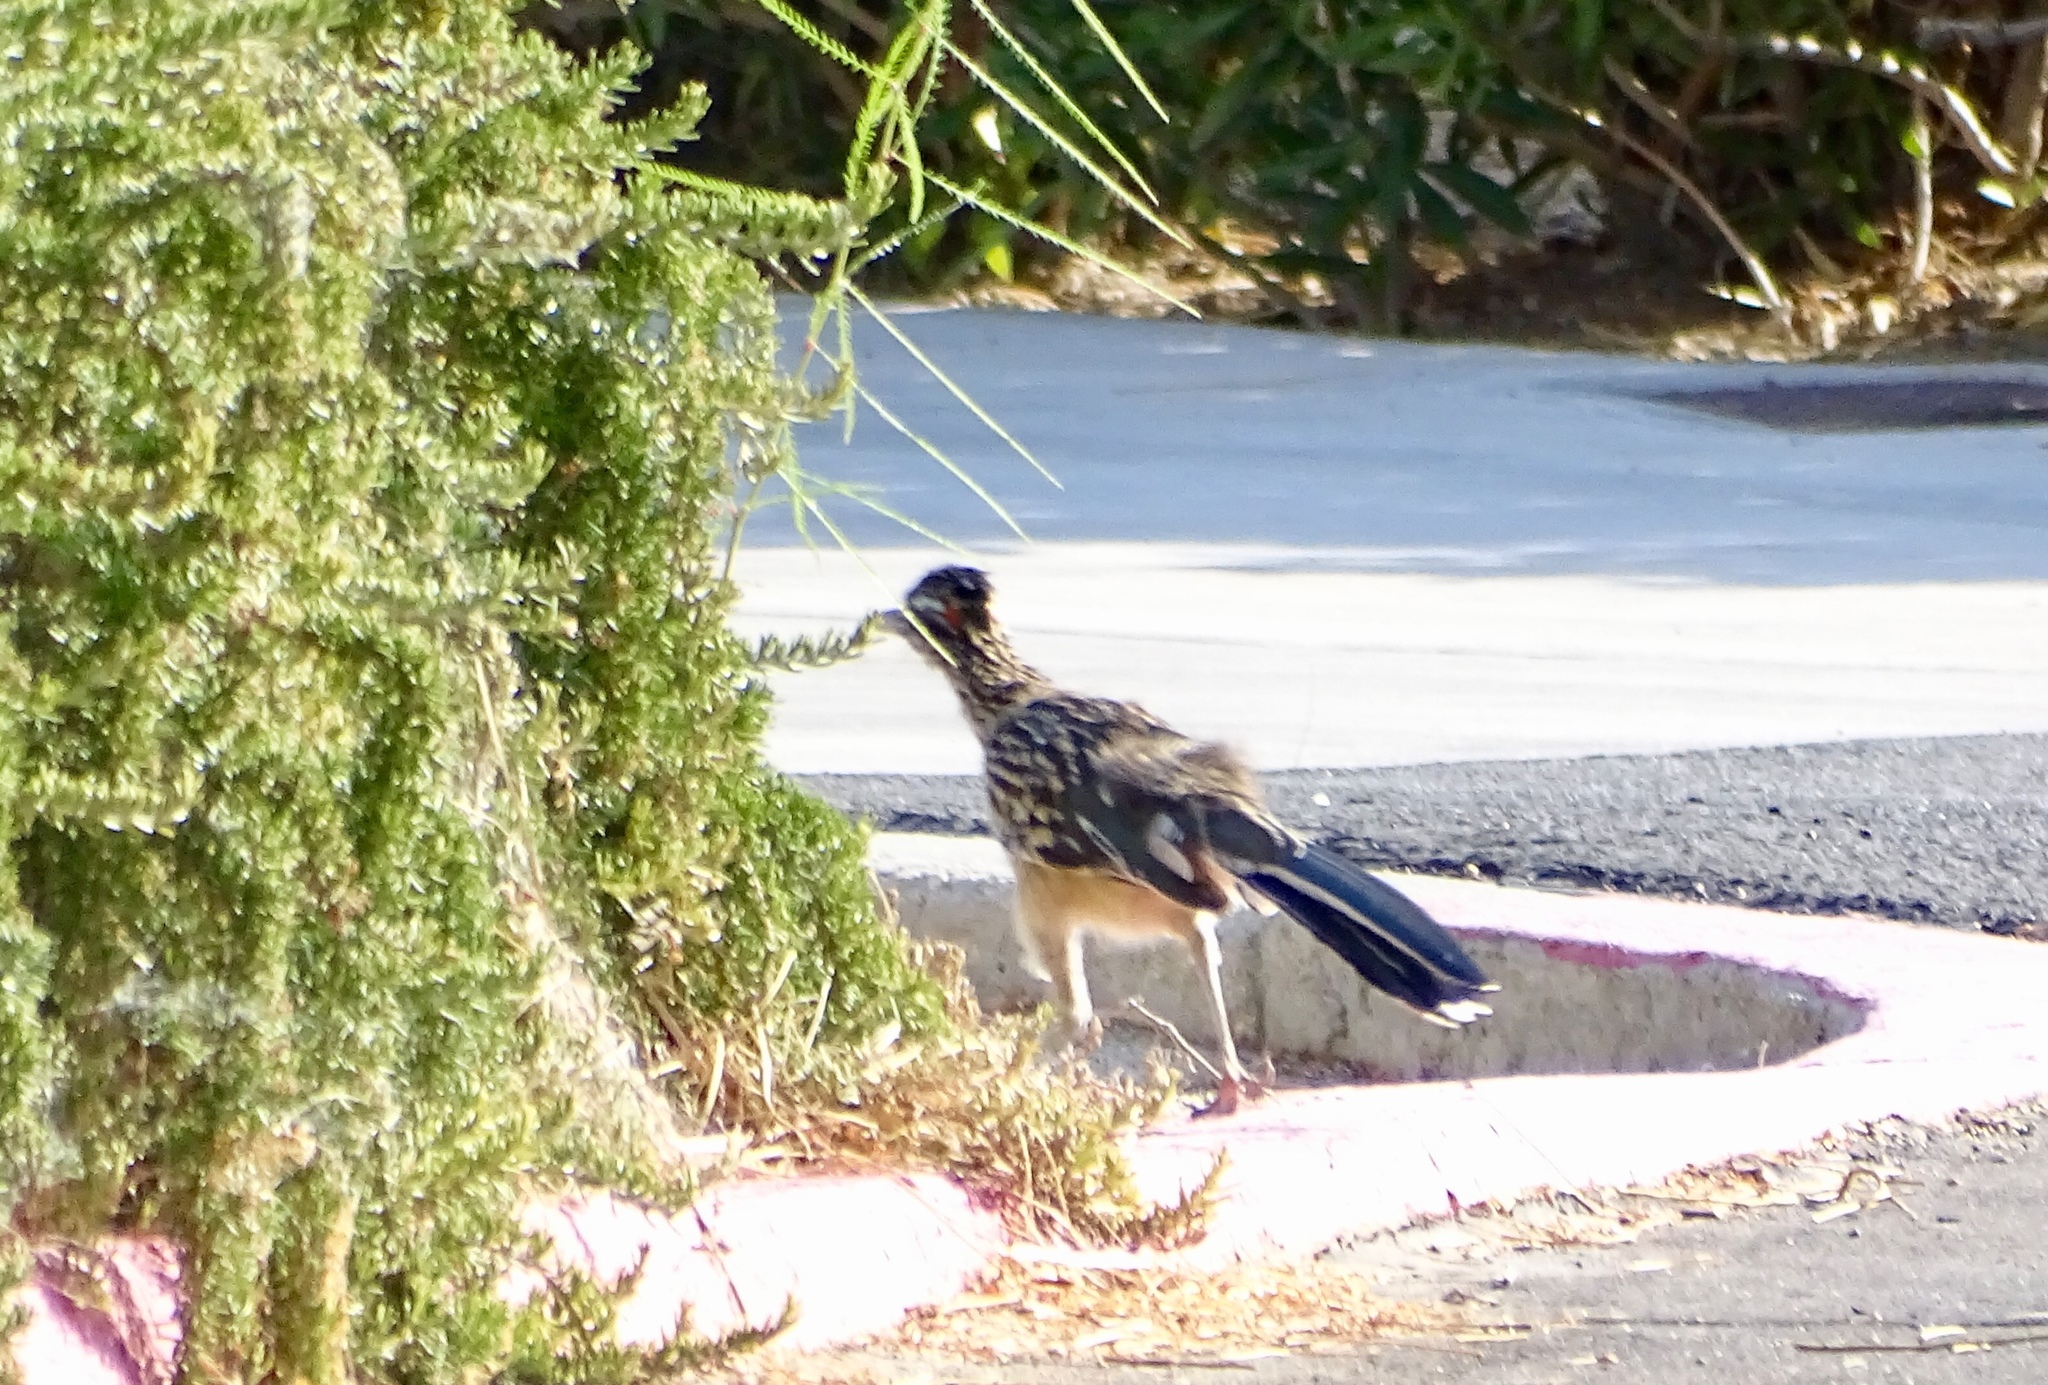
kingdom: Animalia
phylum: Chordata
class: Aves
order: Cuculiformes
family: Cuculidae
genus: Geococcyx
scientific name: Geococcyx californianus
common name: Greater roadrunner
